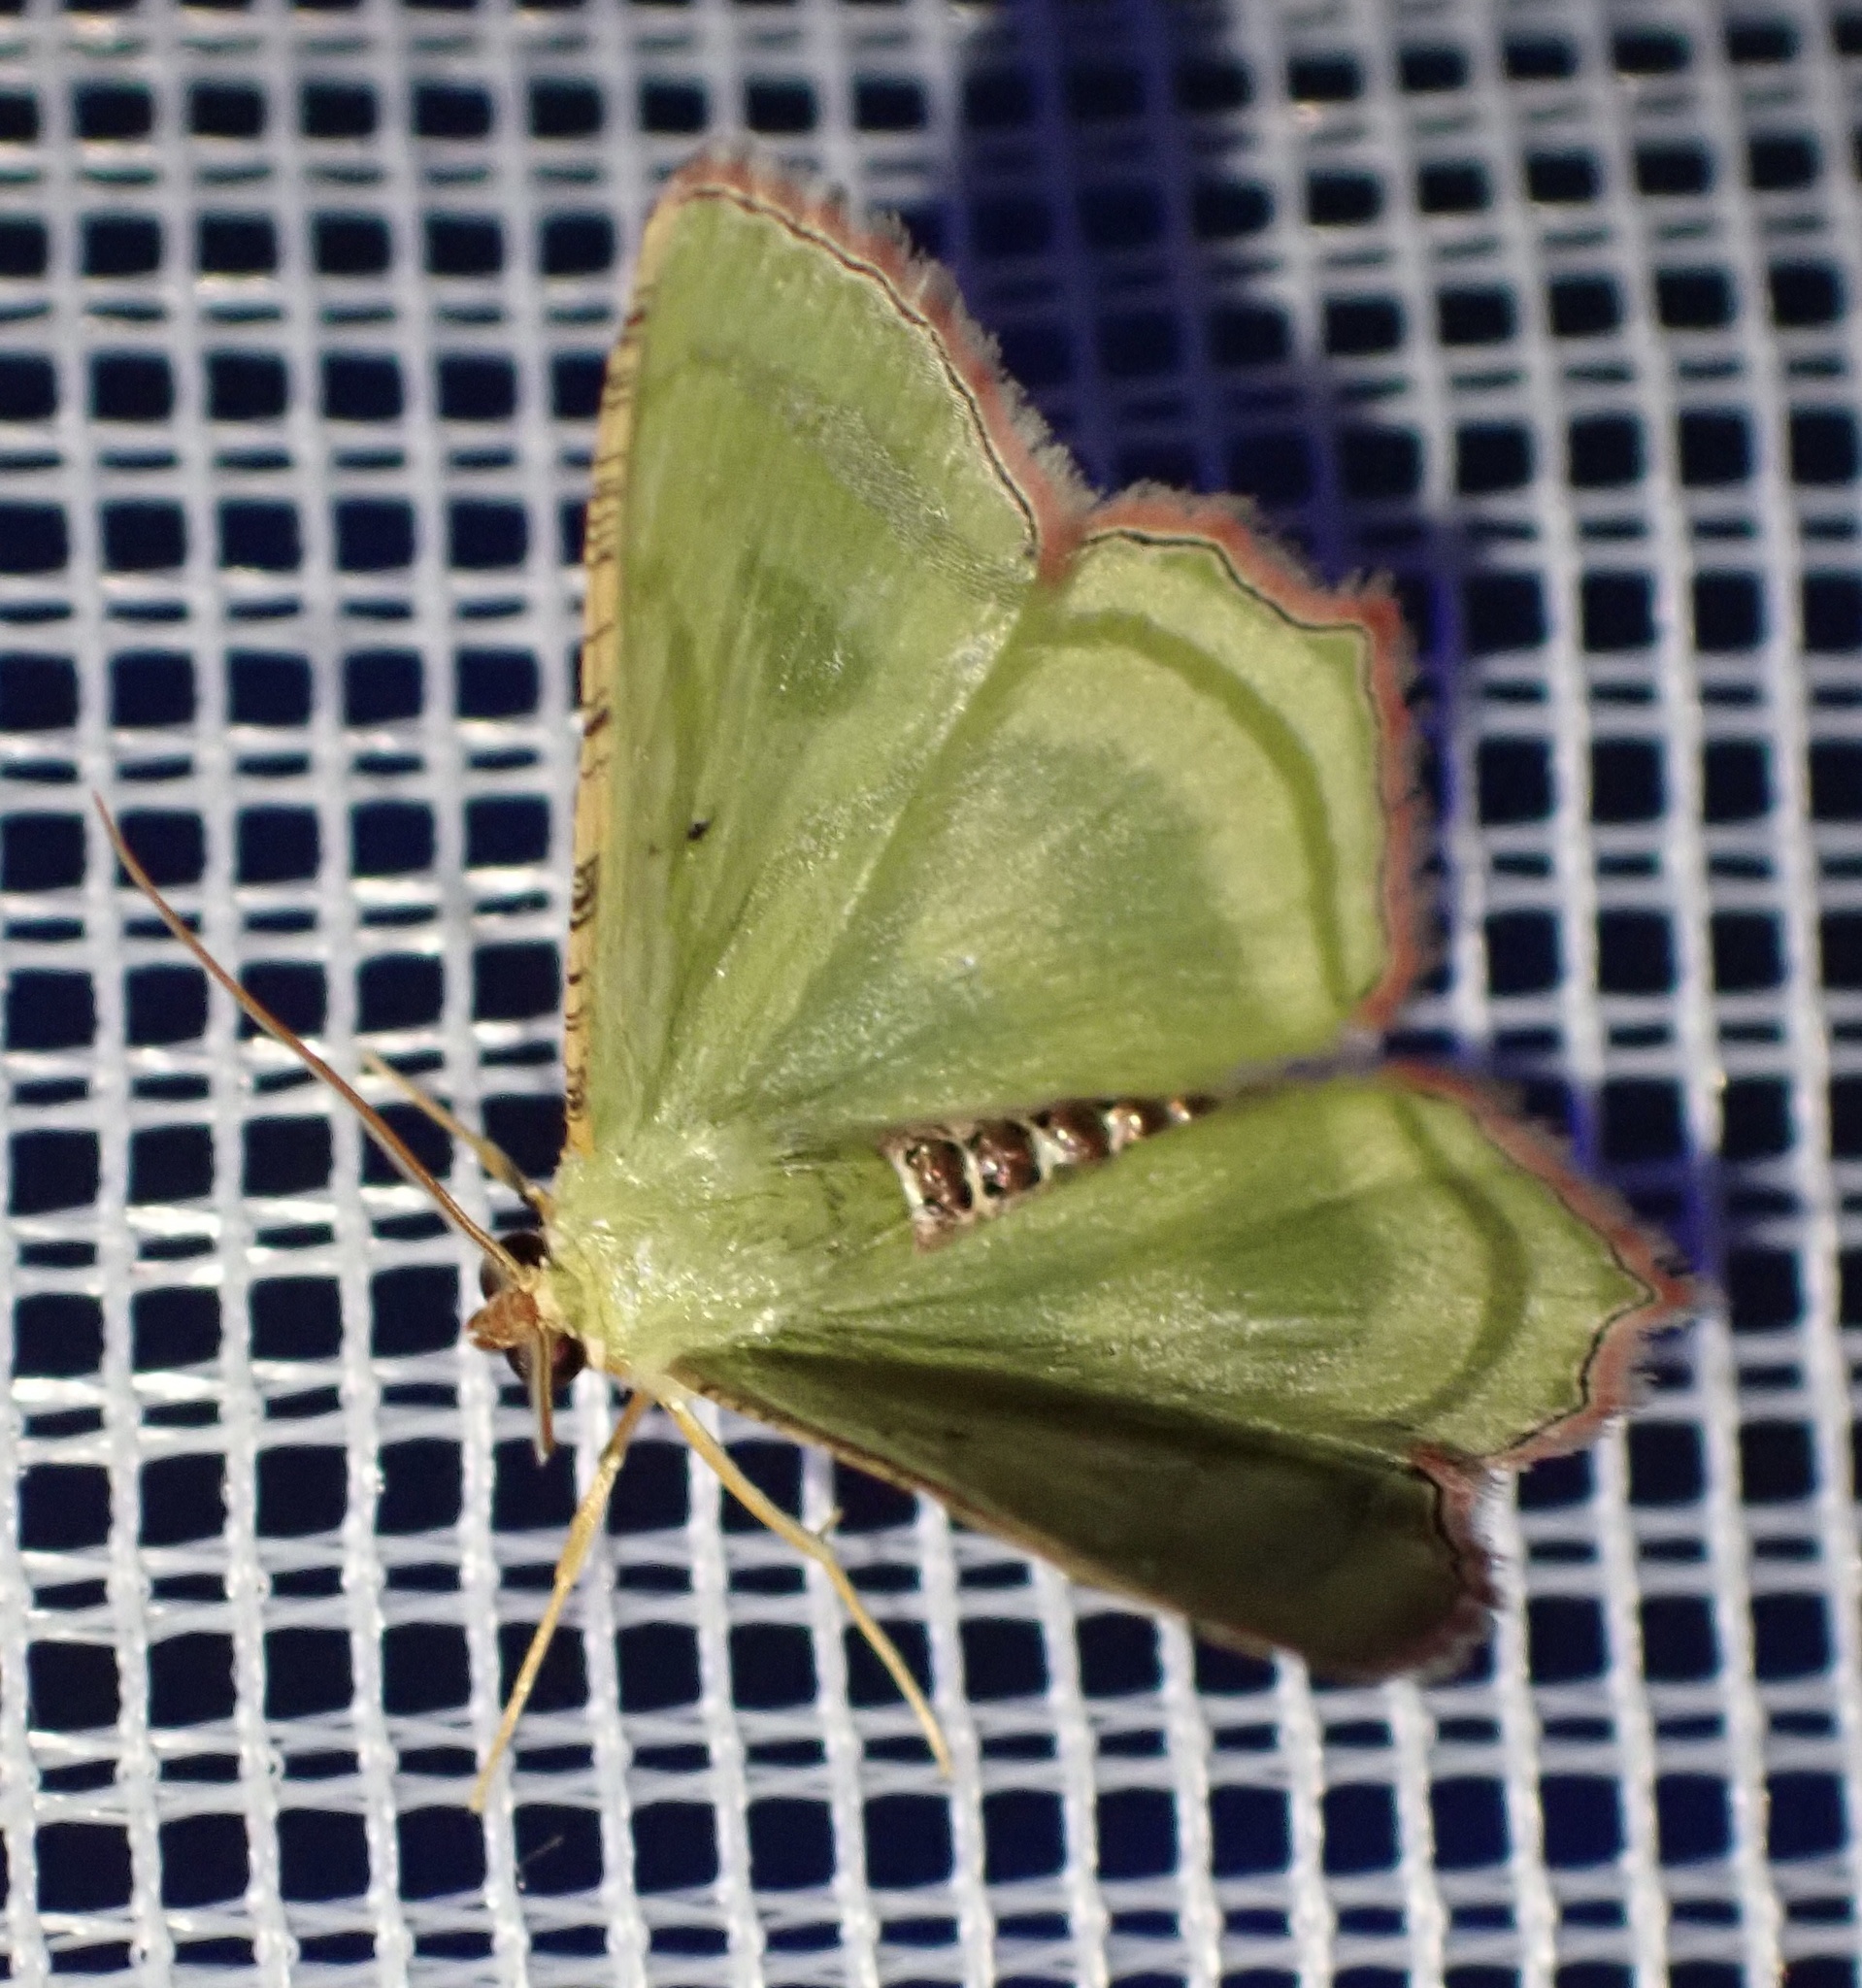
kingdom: Animalia
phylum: Arthropoda
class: Insecta
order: Lepidoptera
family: Geometridae
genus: Metallochlora
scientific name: Metallochlora lineata
